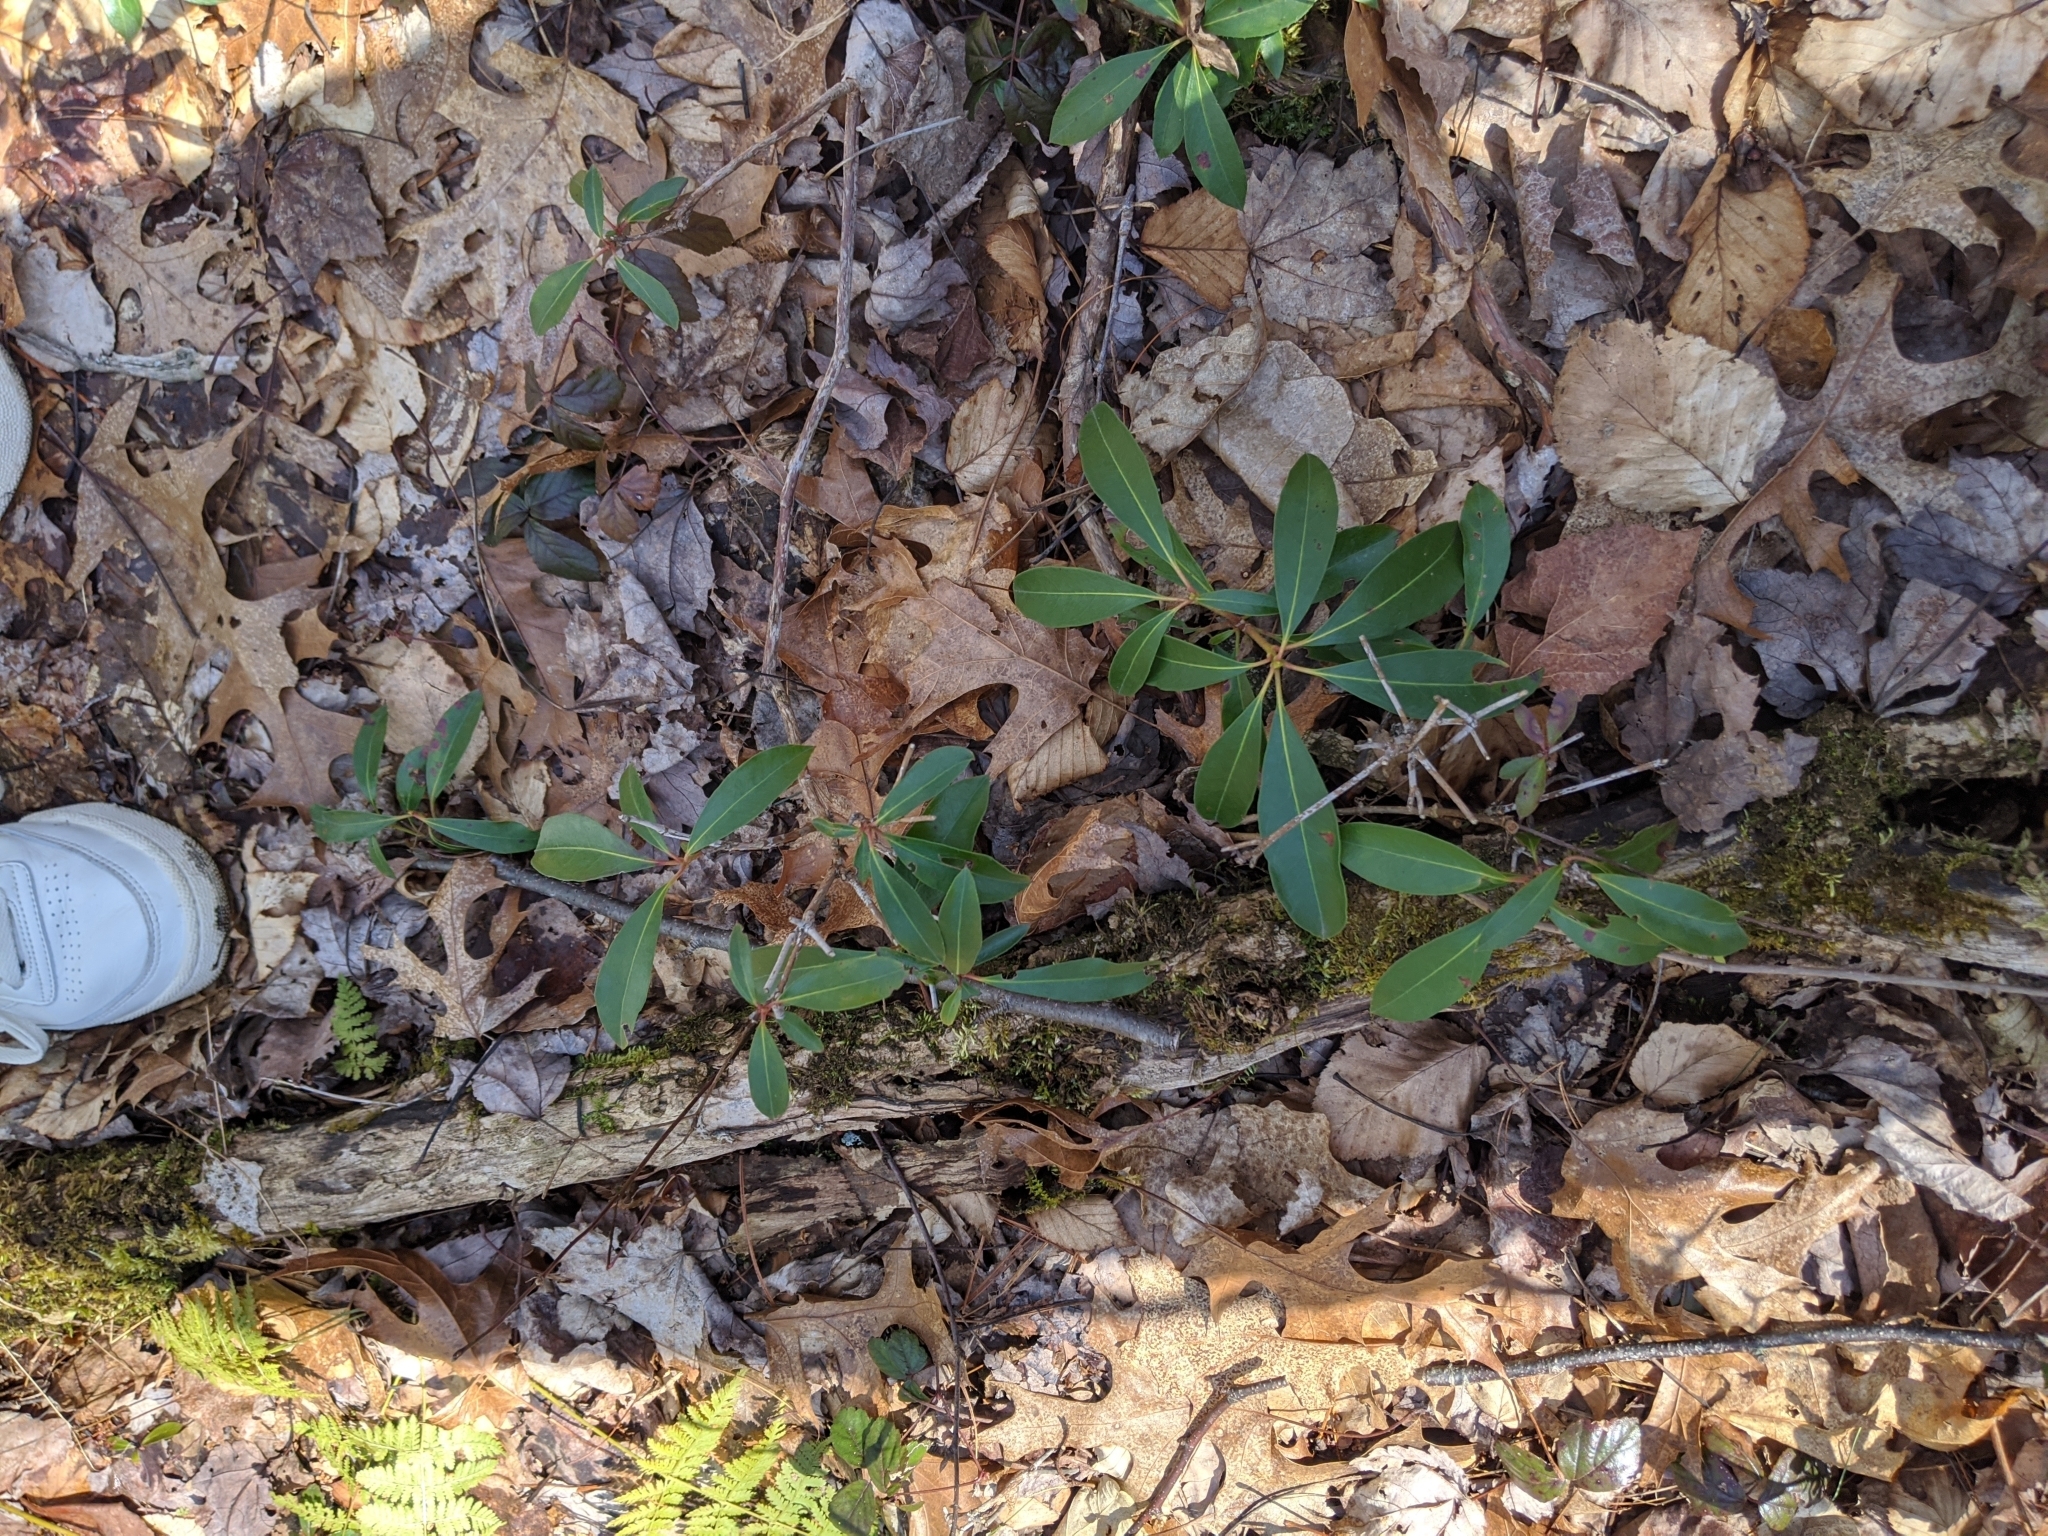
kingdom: Plantae
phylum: Tracheophyta
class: Magnoliopsida
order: Ericales
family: Ericaceae
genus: Kalmia
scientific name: Kalmia latifolia
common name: Mountain-laurel
